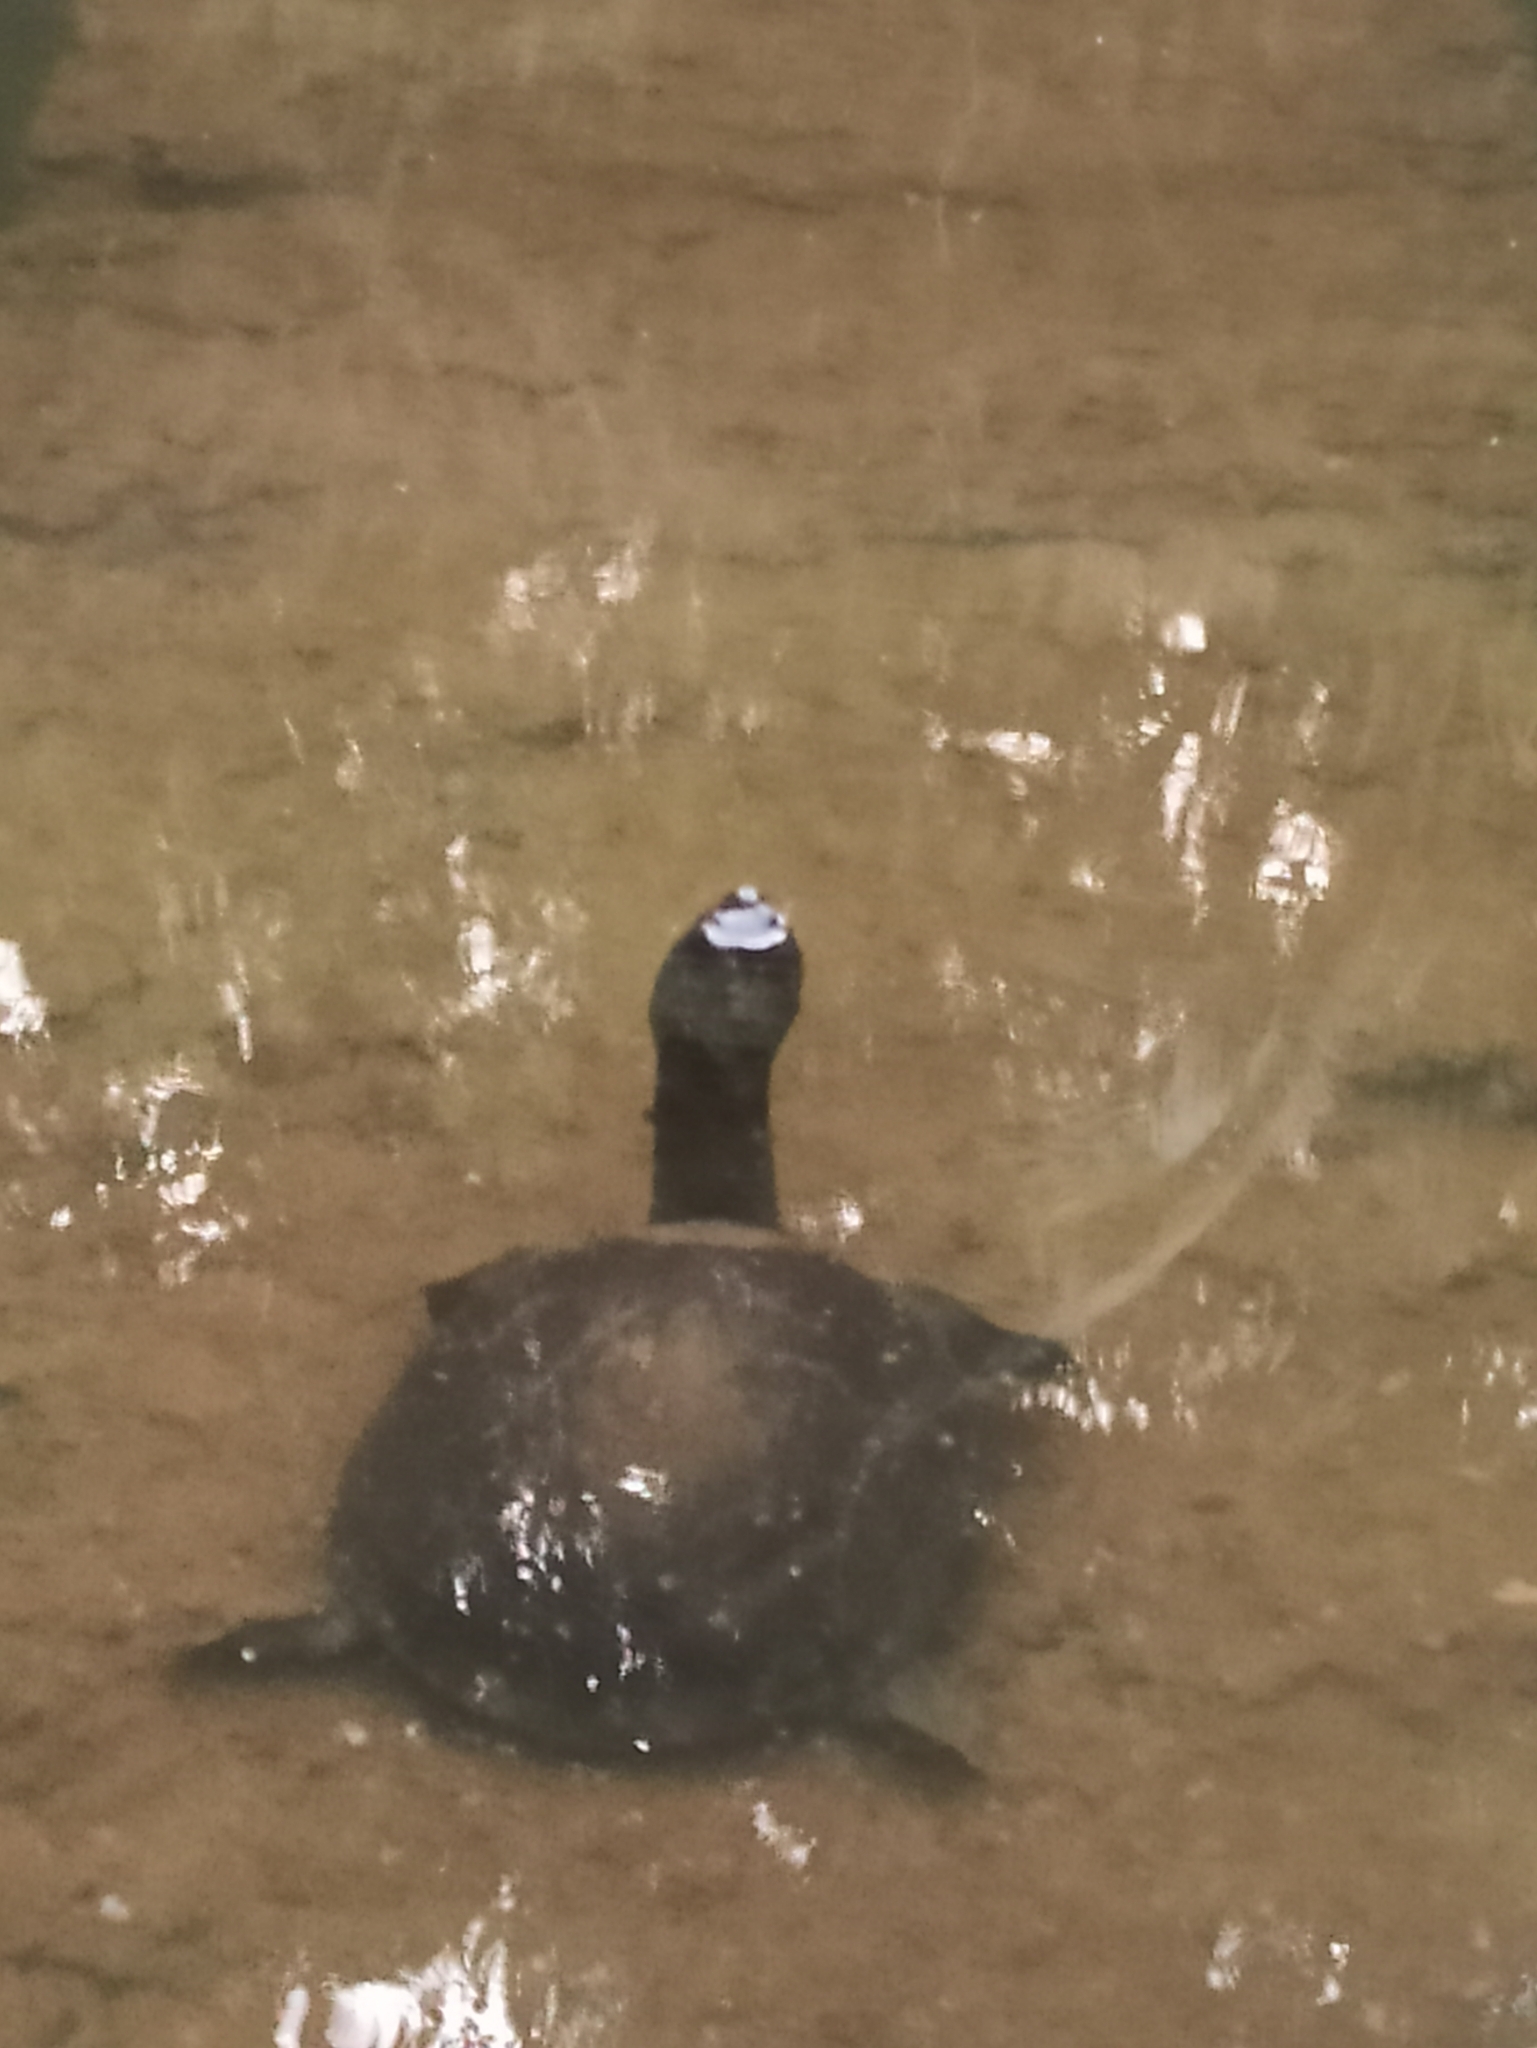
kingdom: Animalia
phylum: Chordata
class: Testudines
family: Trionychidae
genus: Lissemys
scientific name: Lissemys punctata
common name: Indian flap-shelled turtle
